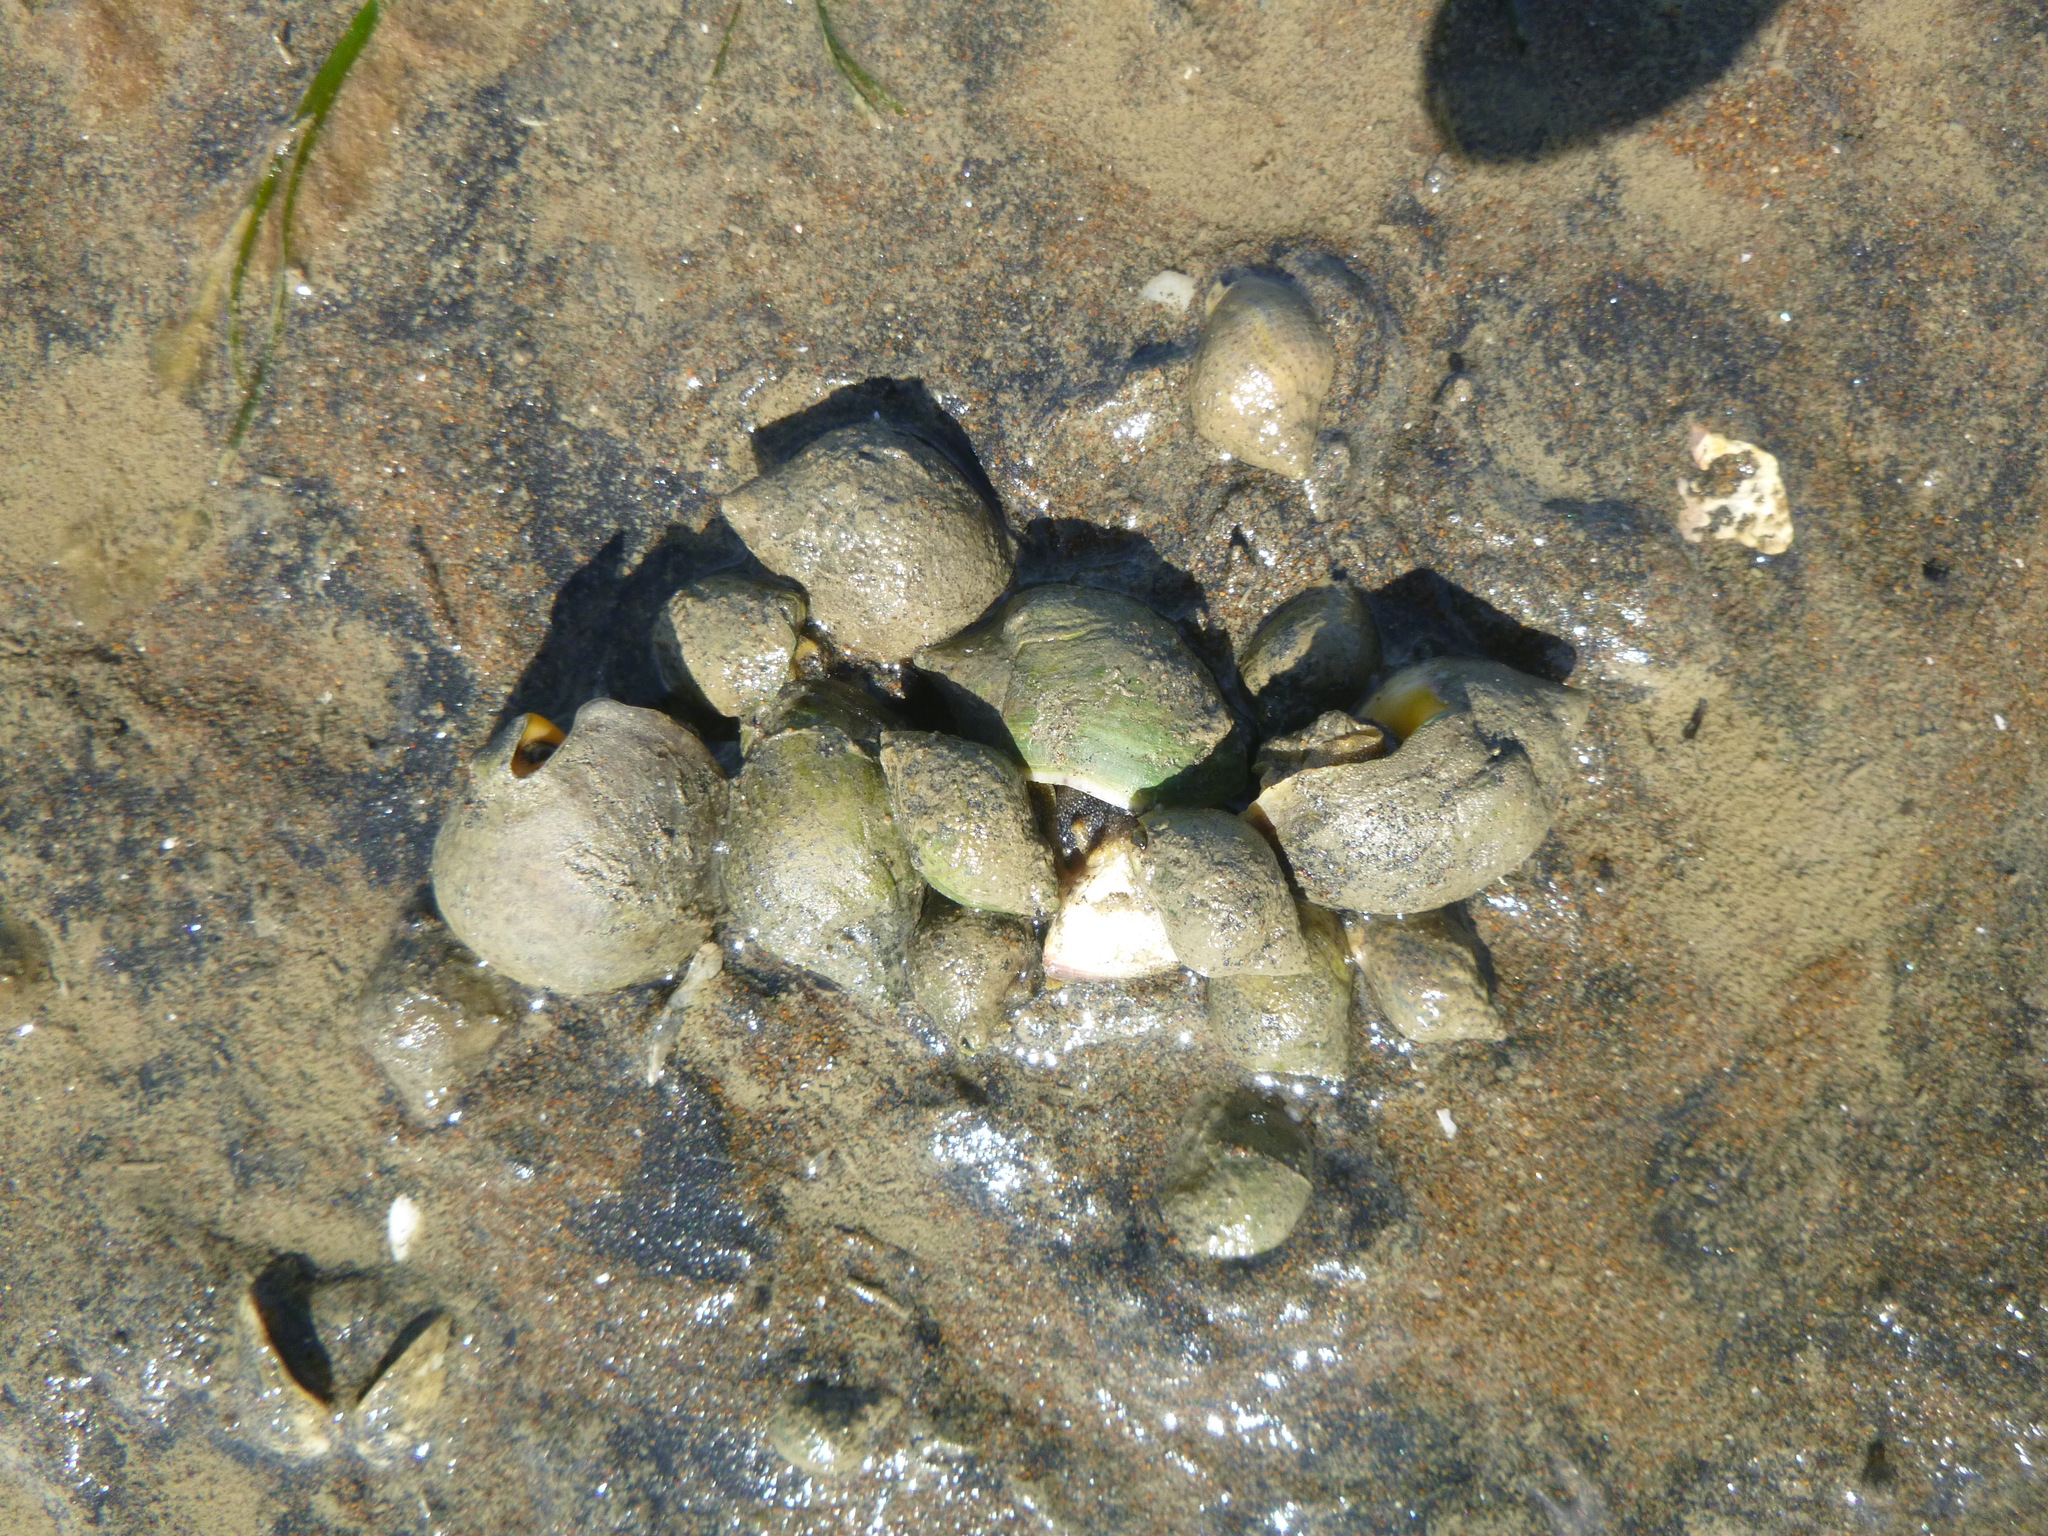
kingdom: Animalia
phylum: Mollusca
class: Gastropoda
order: Neogastropoda
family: Cominellidae
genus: Cominella
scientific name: Cominella adspersa
